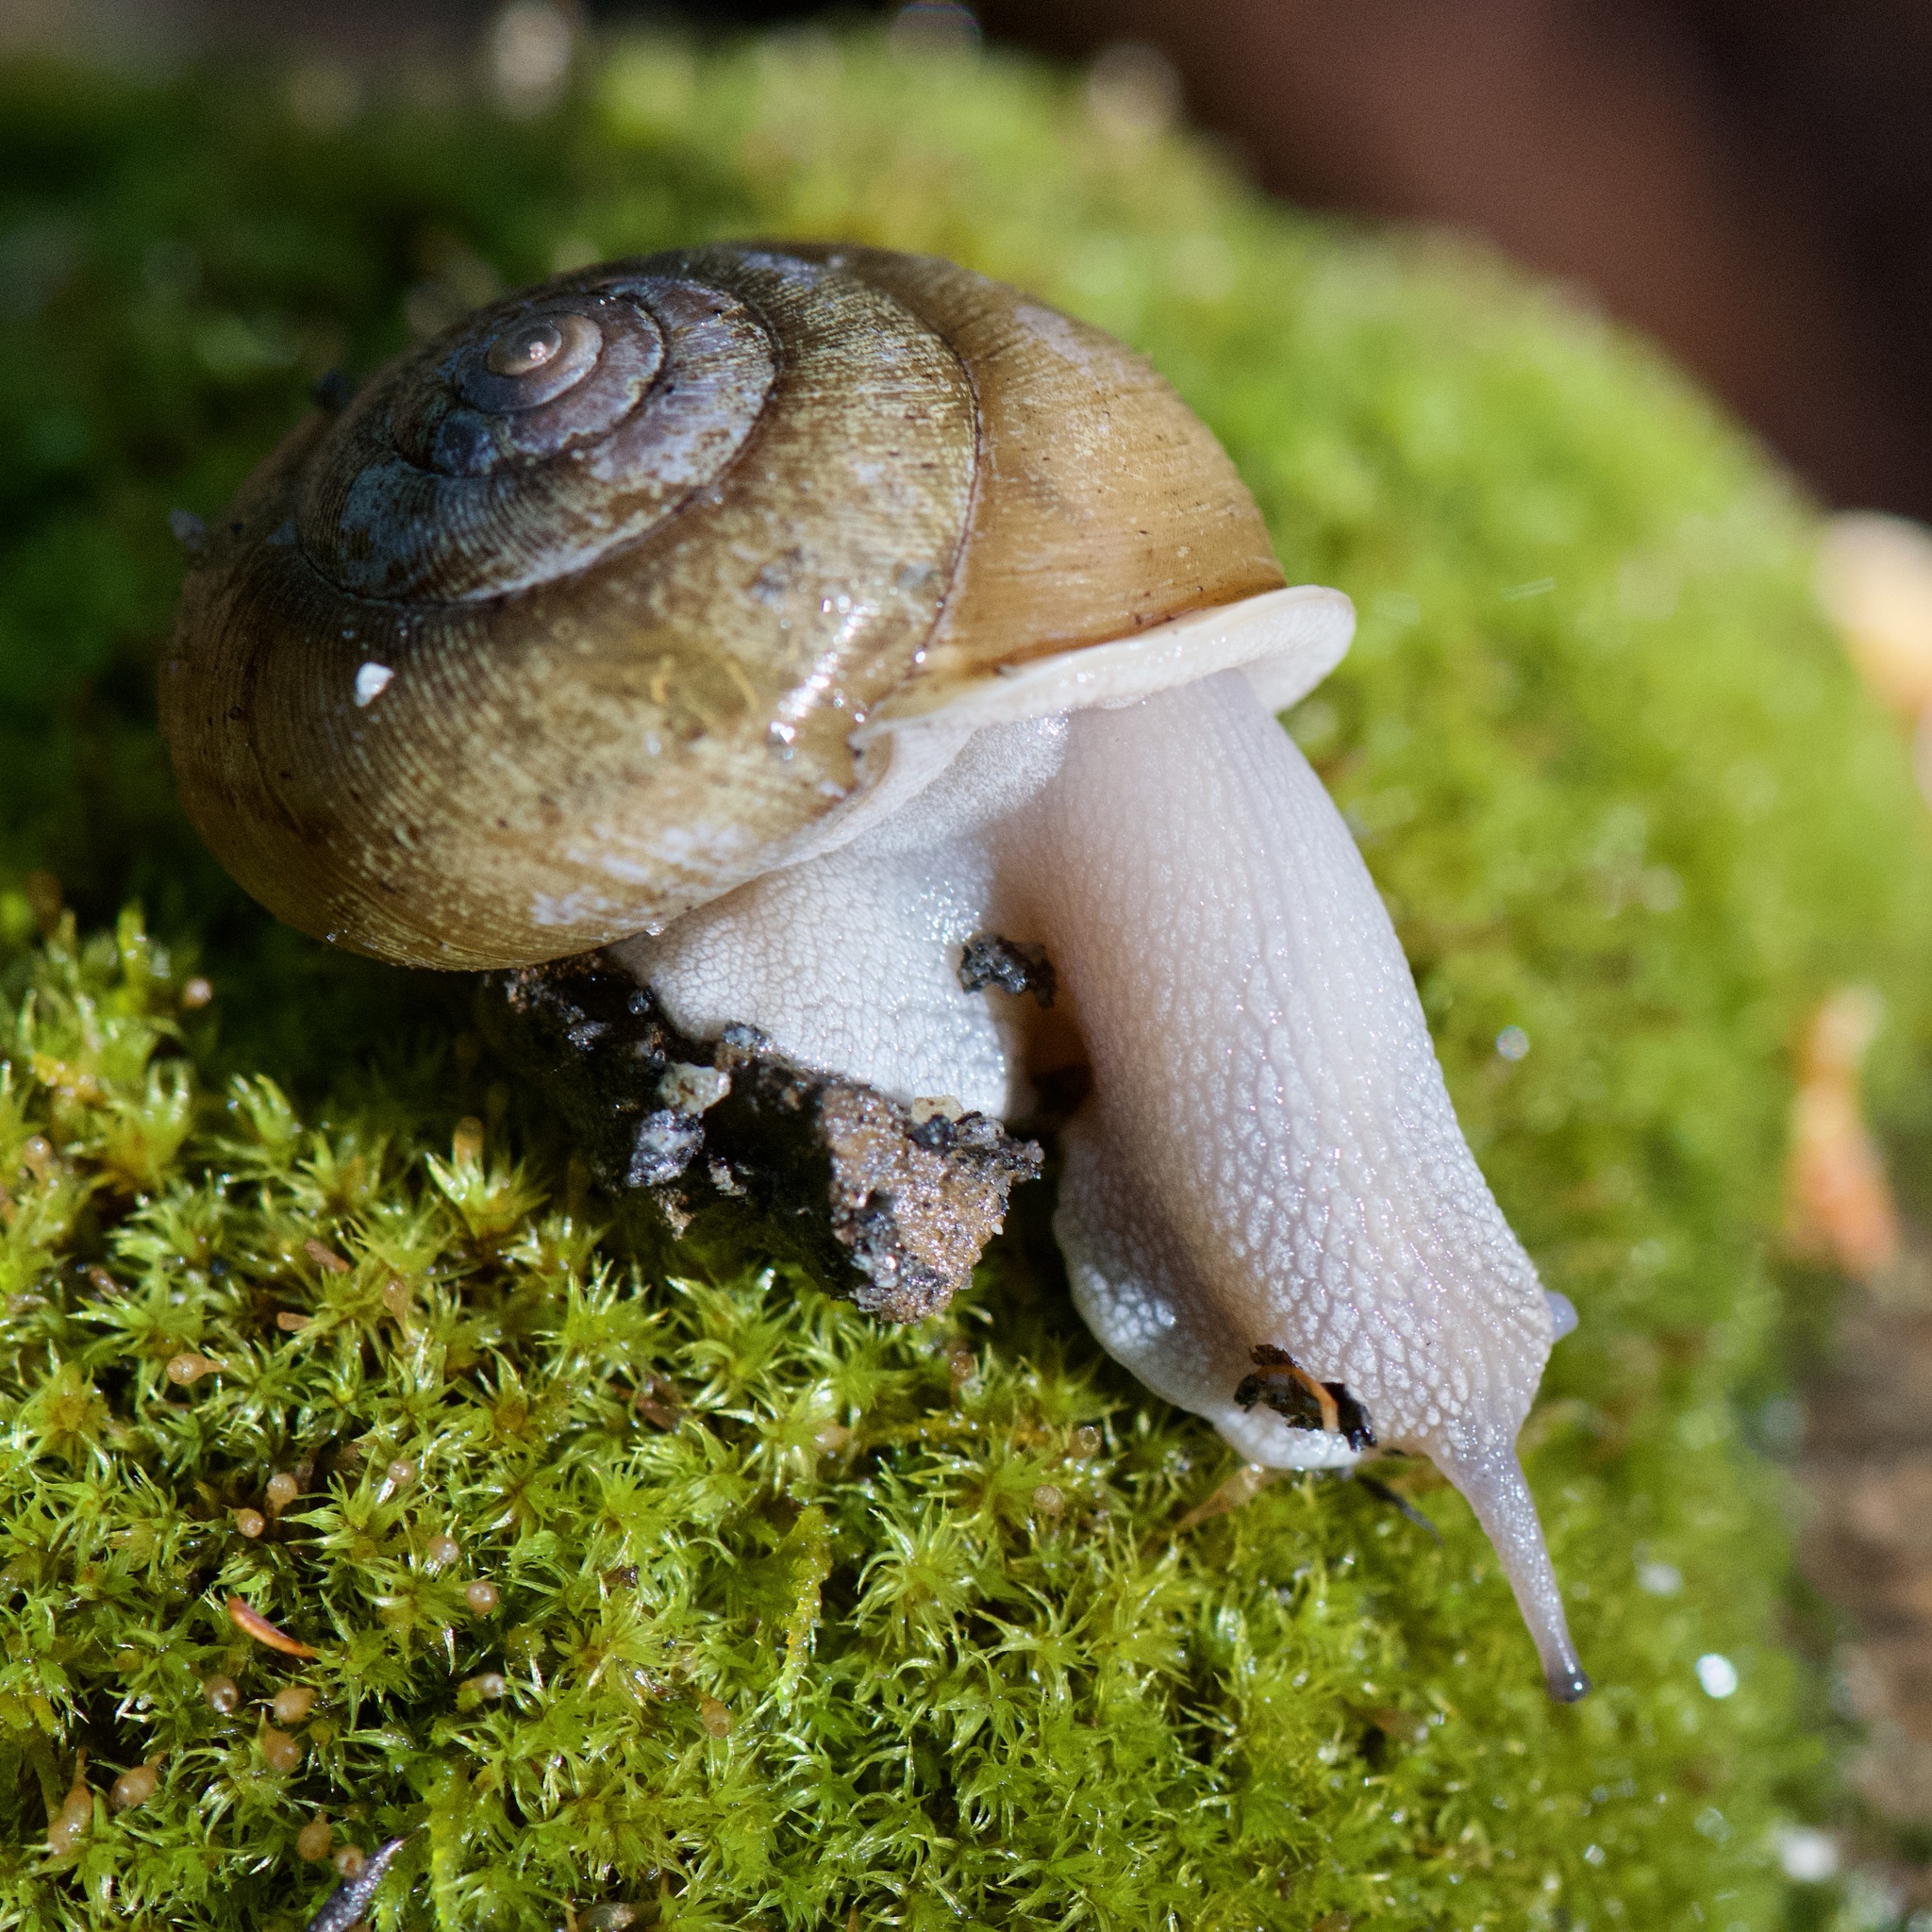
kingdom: Animalia
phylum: Mollusca
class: Gastropoda
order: Stylommatophora
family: Polygyridae
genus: Neohelix
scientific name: Neohelix albolabris
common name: Eastern whitelip
